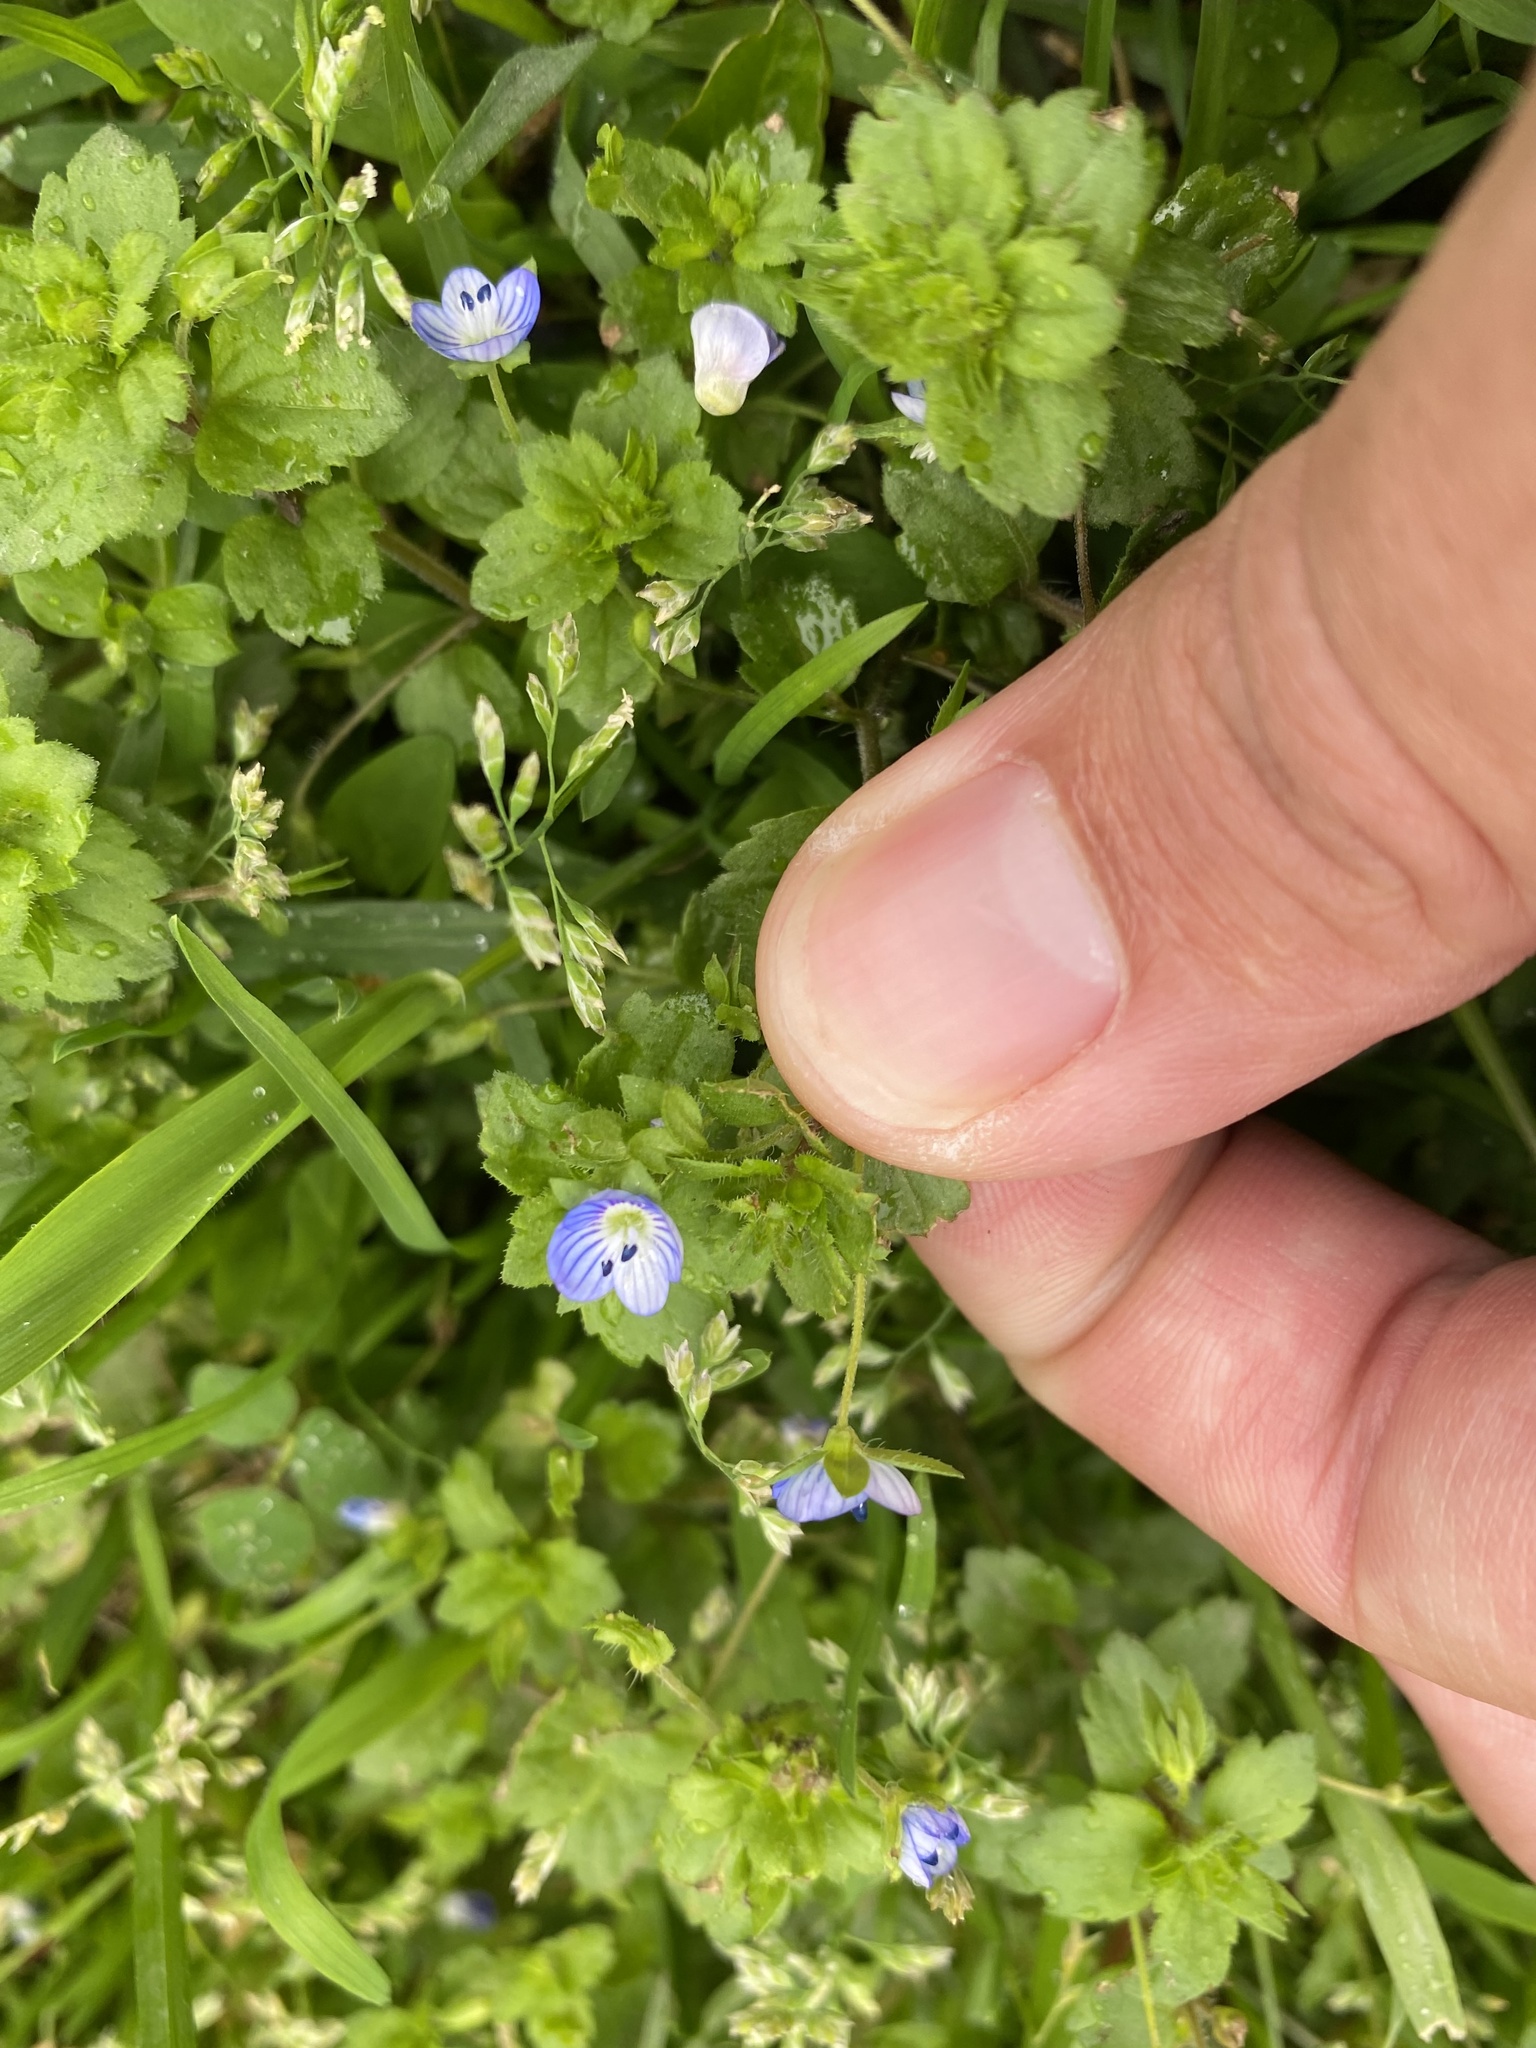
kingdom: Plantae
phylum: Tracheophyta
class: Magnoliopsida
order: Lamiales
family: Plantaginaceae
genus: Veronica
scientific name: Veronica persica
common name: Common field-speedwell
